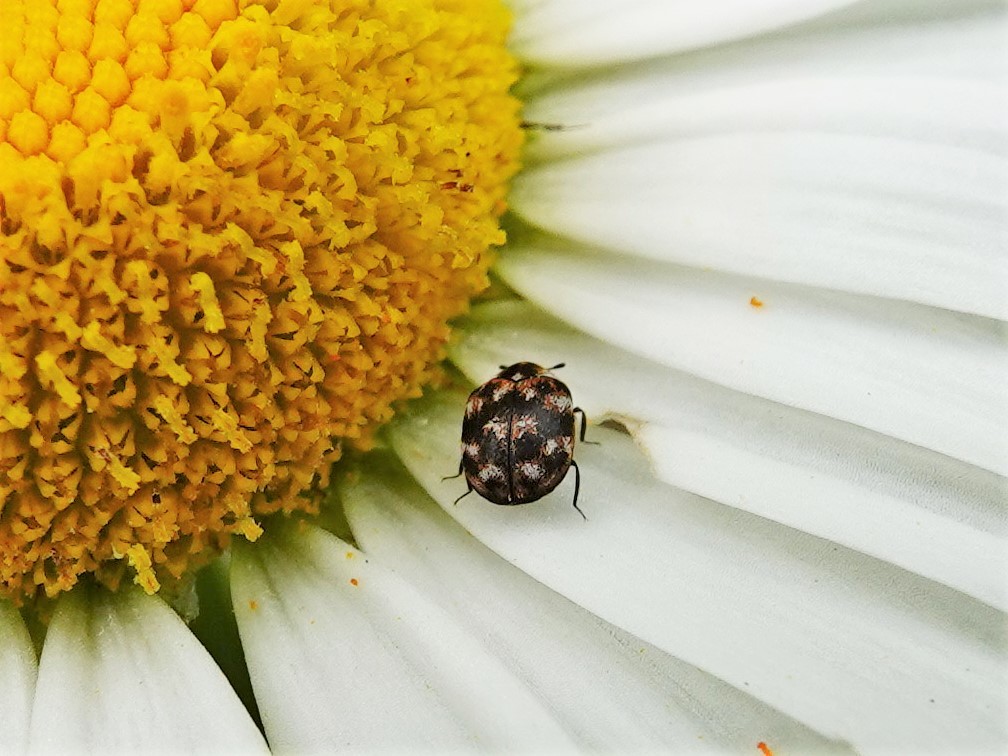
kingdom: Animalia
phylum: Arthropoda
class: Insecta
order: Coleoptera
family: Dermestidae
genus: Anthrenus
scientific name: Anthrenus verbasci
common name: Varied carpet beetle
